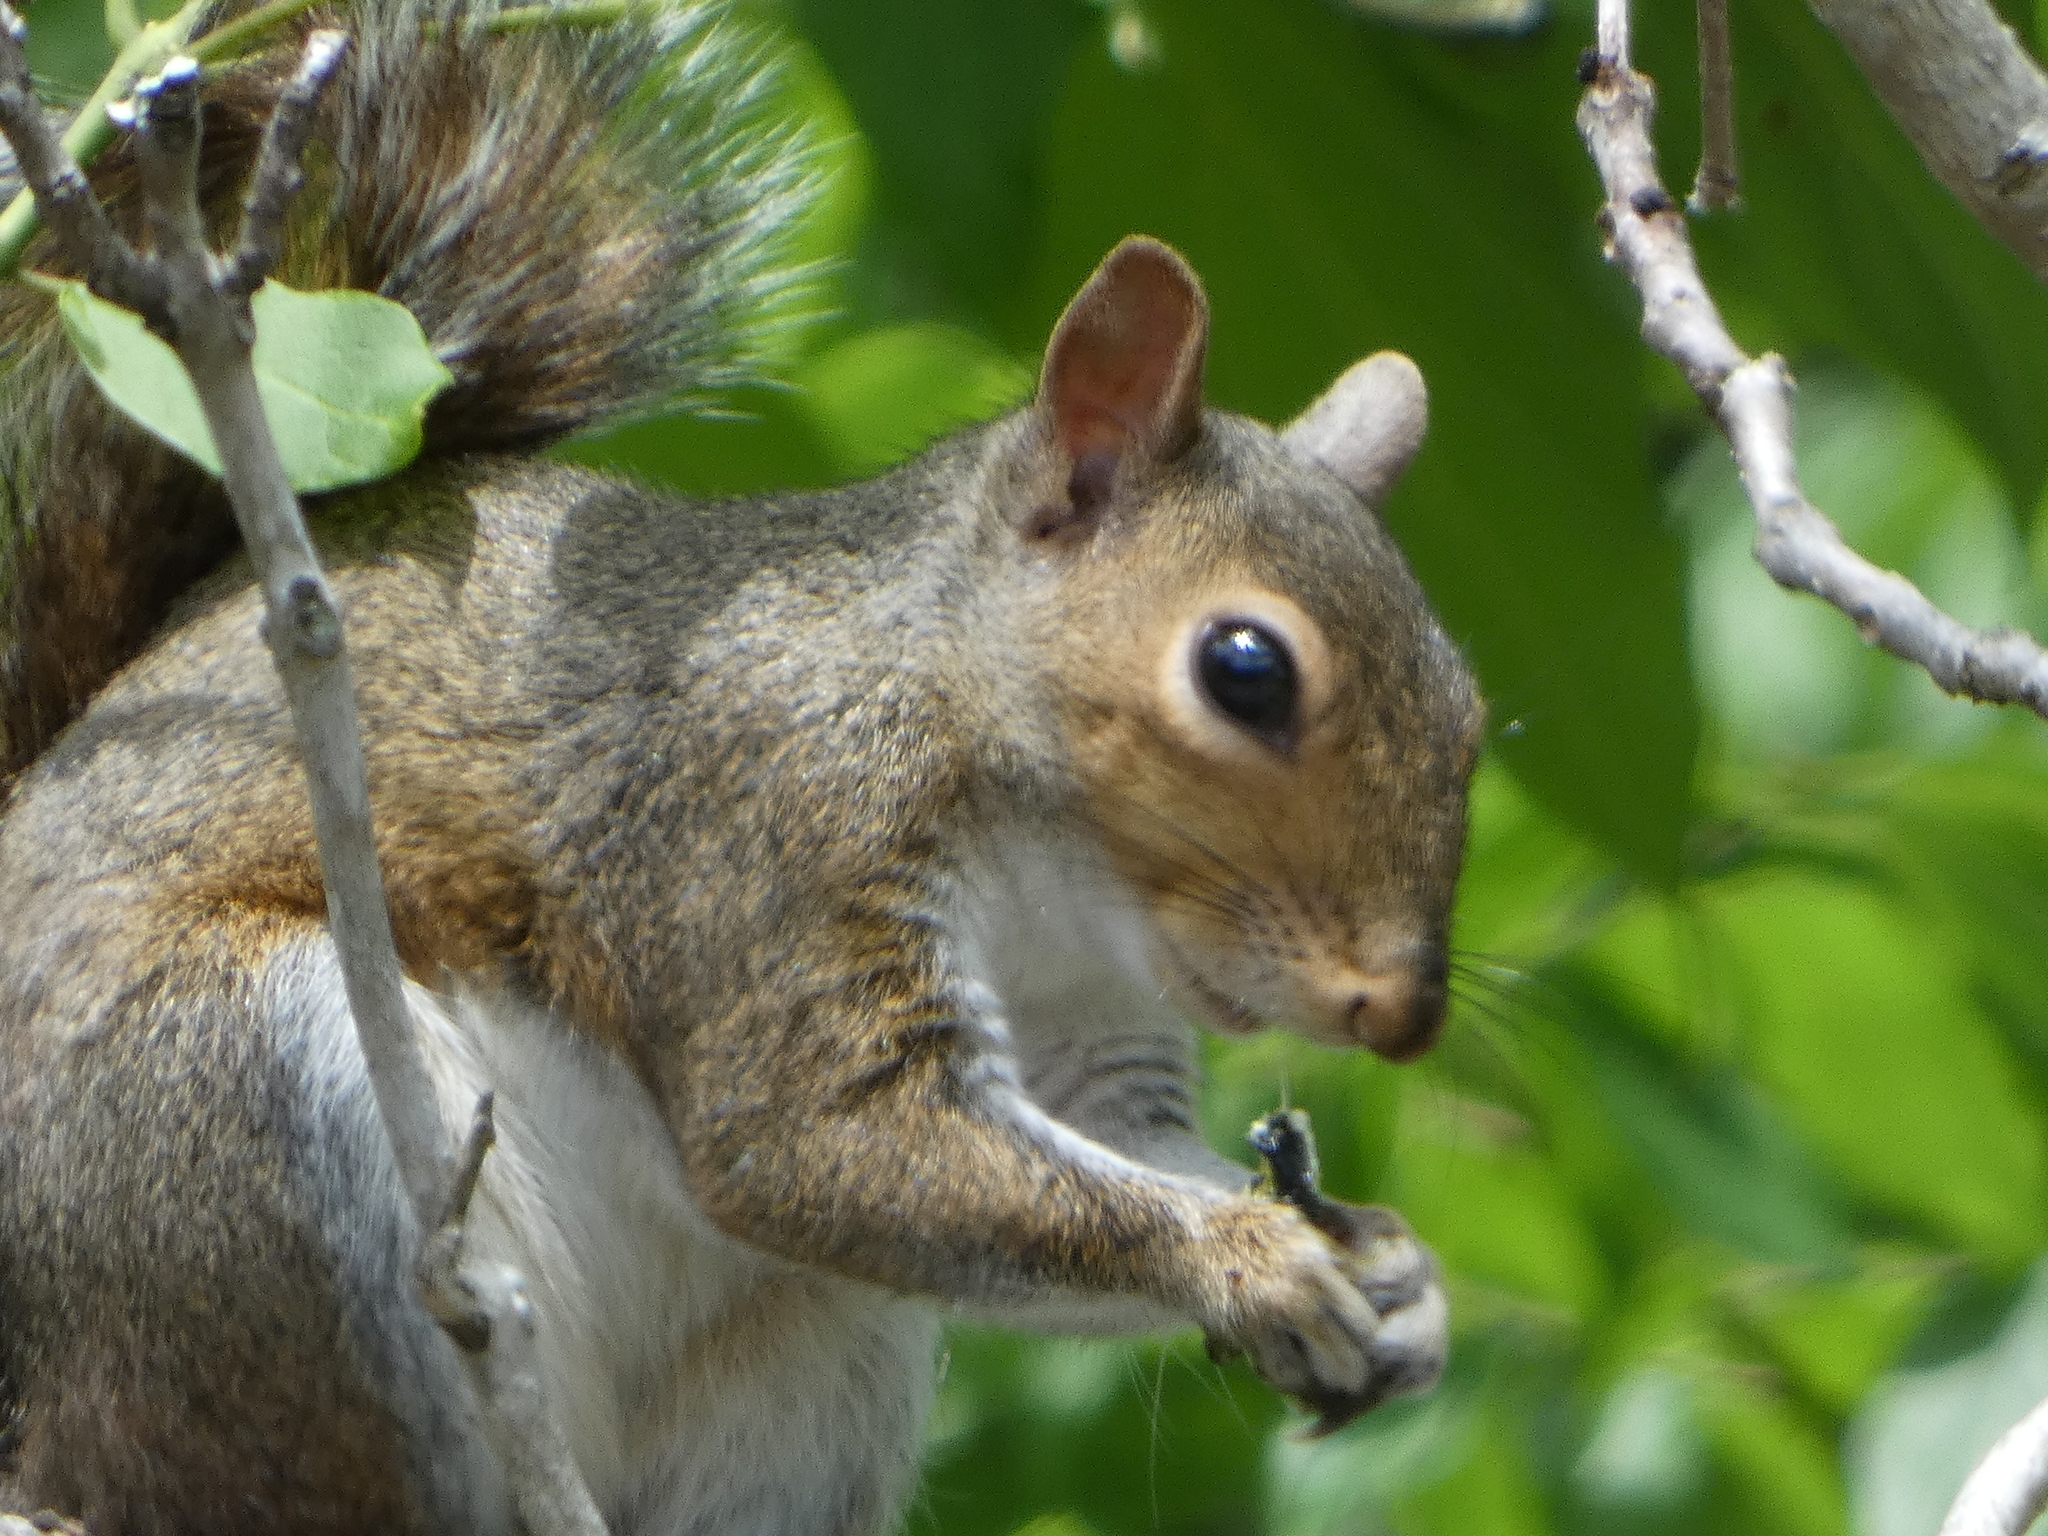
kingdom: Animalia
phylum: Chordata
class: Mammalia
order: Rodentia
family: Sciuridae
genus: Sciurus
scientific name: Sciurus carolinensis
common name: Eastern gray squirrel
